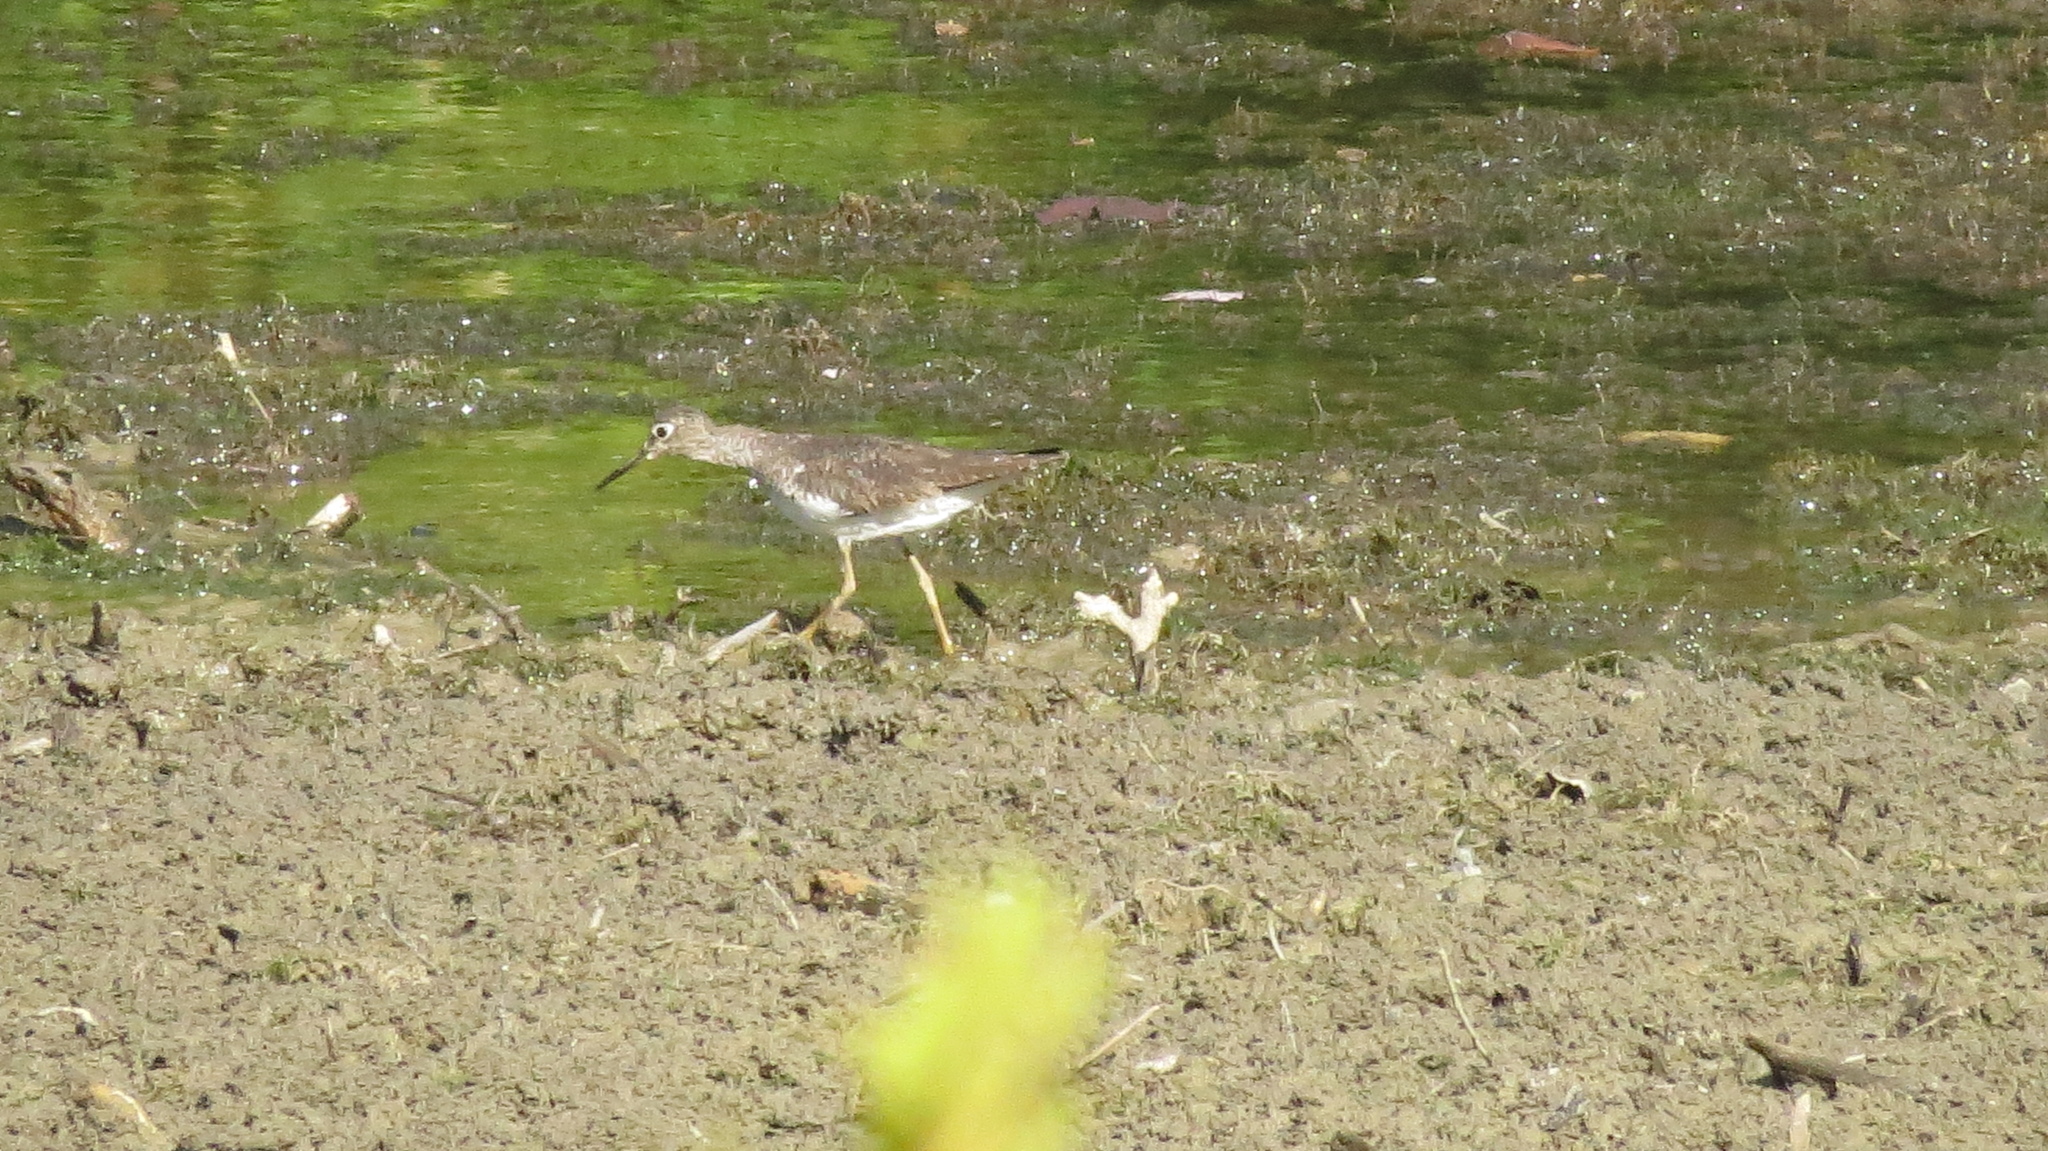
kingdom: Animalia
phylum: Chordata
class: Aves
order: Charadriiformes
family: Scolopacidae
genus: Tringa
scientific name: Tringa solitaria
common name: Solitary sandpiper
